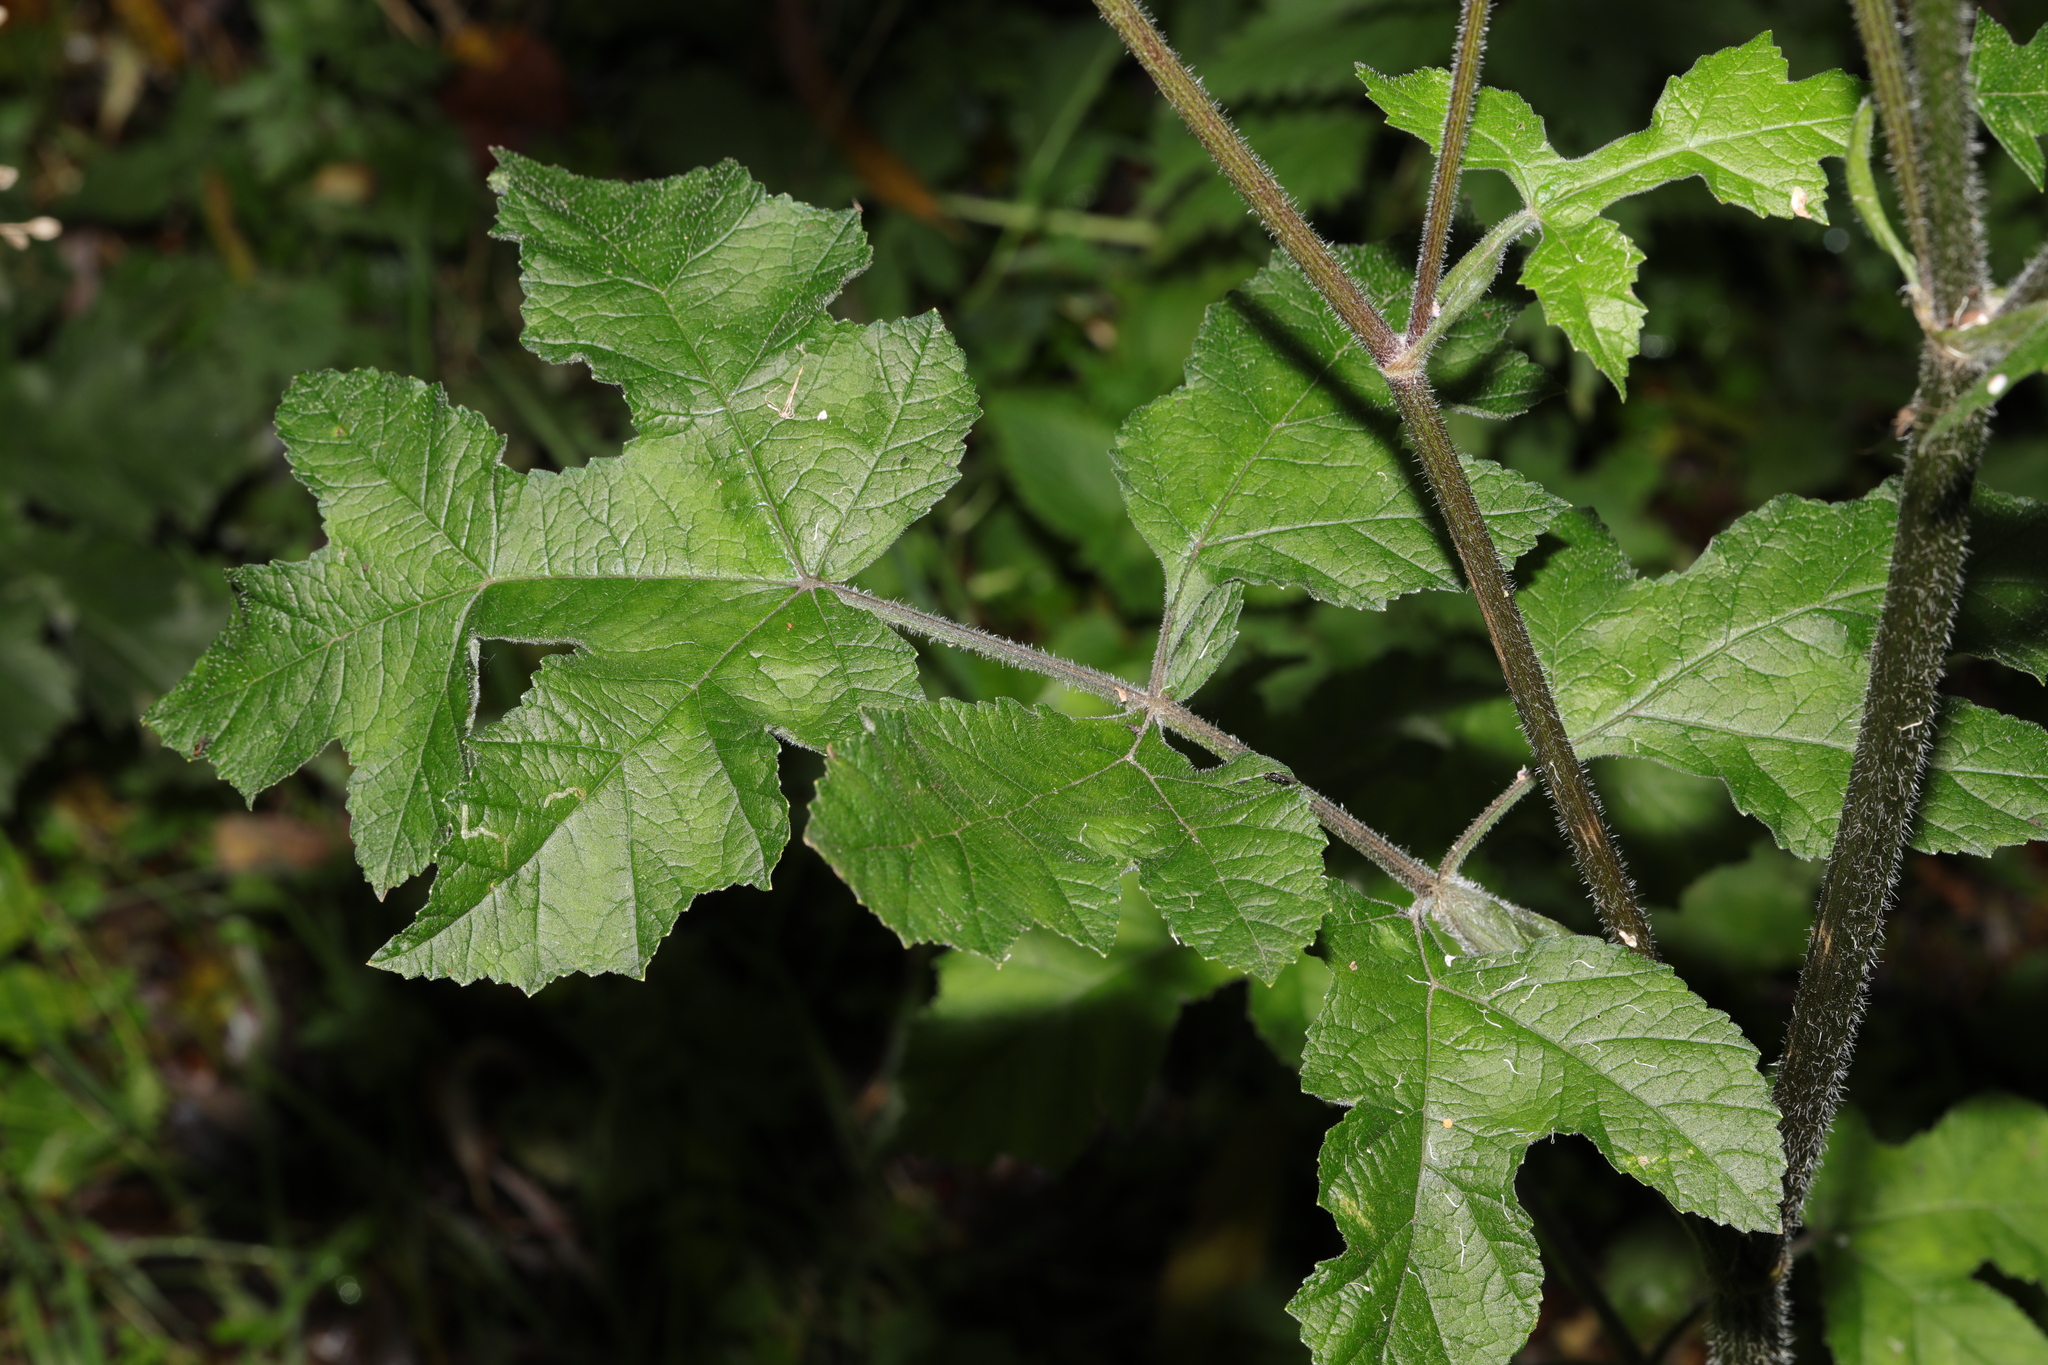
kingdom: Plantae
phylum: Tracheophyta
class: Magnoliopsida
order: Apiales
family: Apiaceae
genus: Heracleum
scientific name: Heracleum sphondylium
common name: Hogweed
